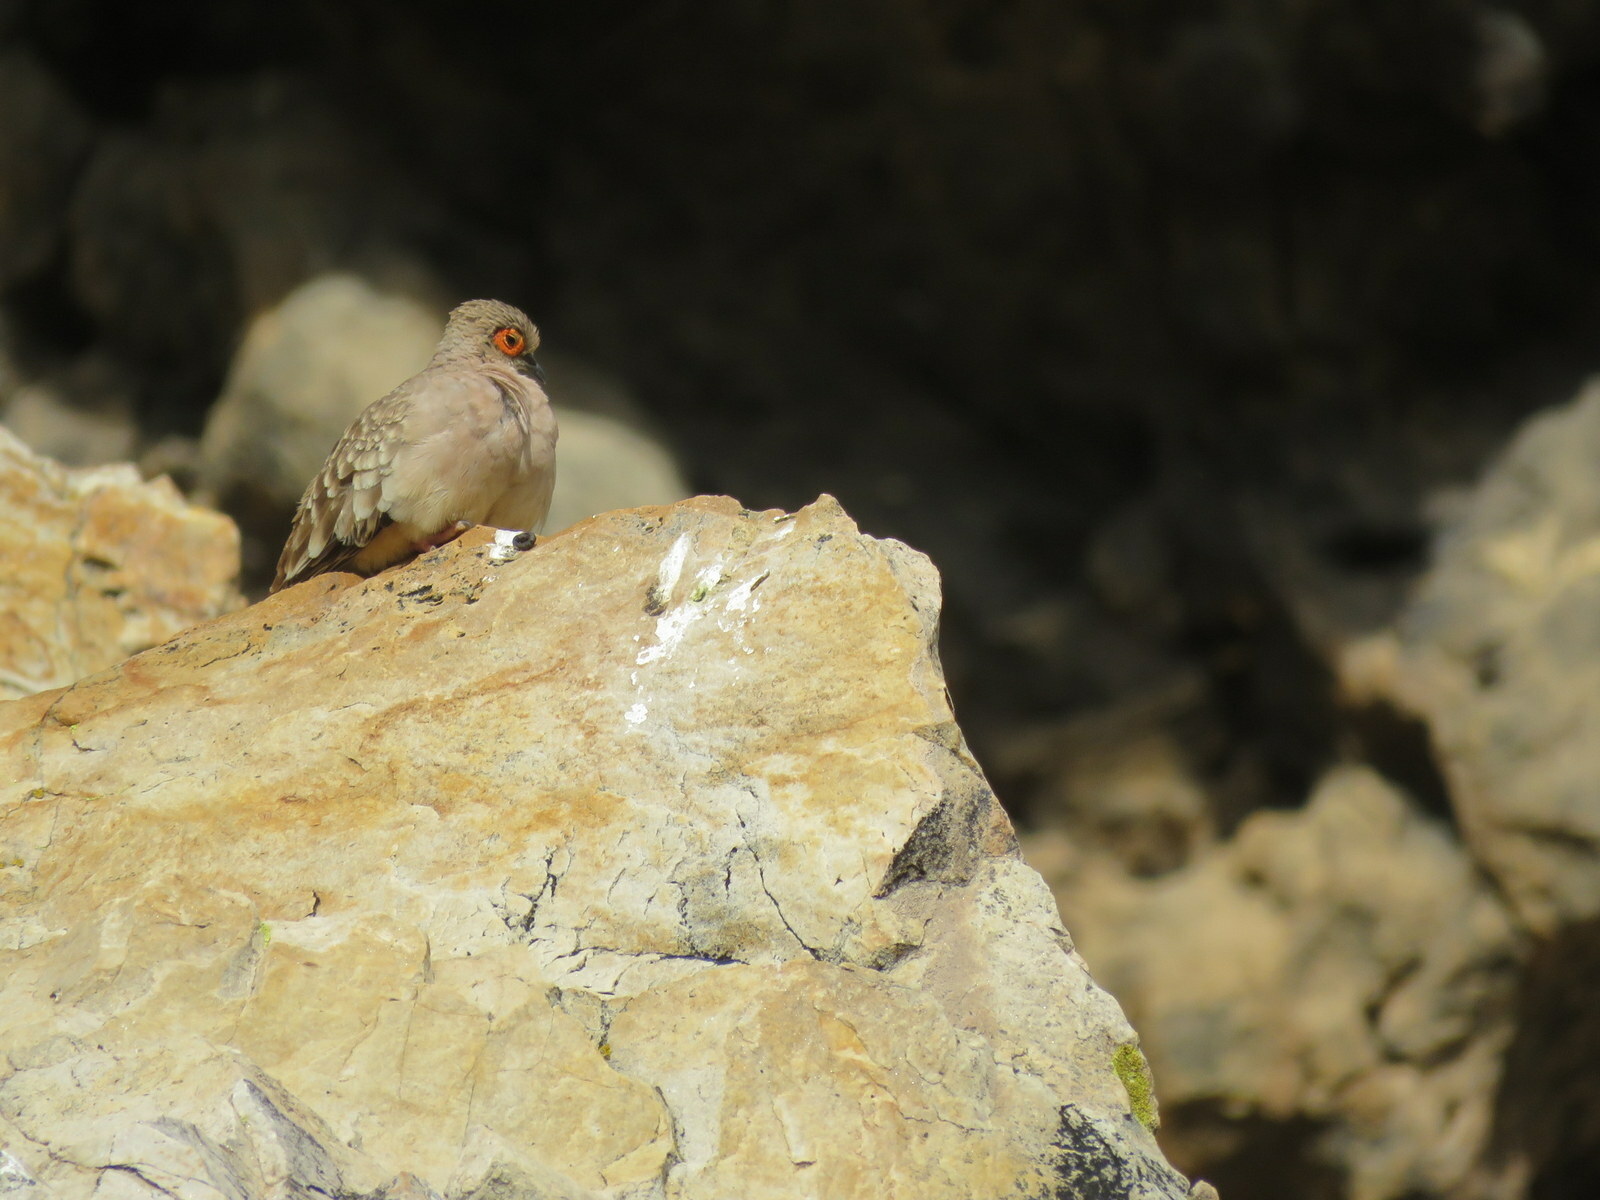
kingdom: Animalia
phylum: Chordata
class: Aves
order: Columbiformes
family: Columbidae
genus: Metriopelia
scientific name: Metriopelia ceciliae
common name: Bare-faced ground dove
